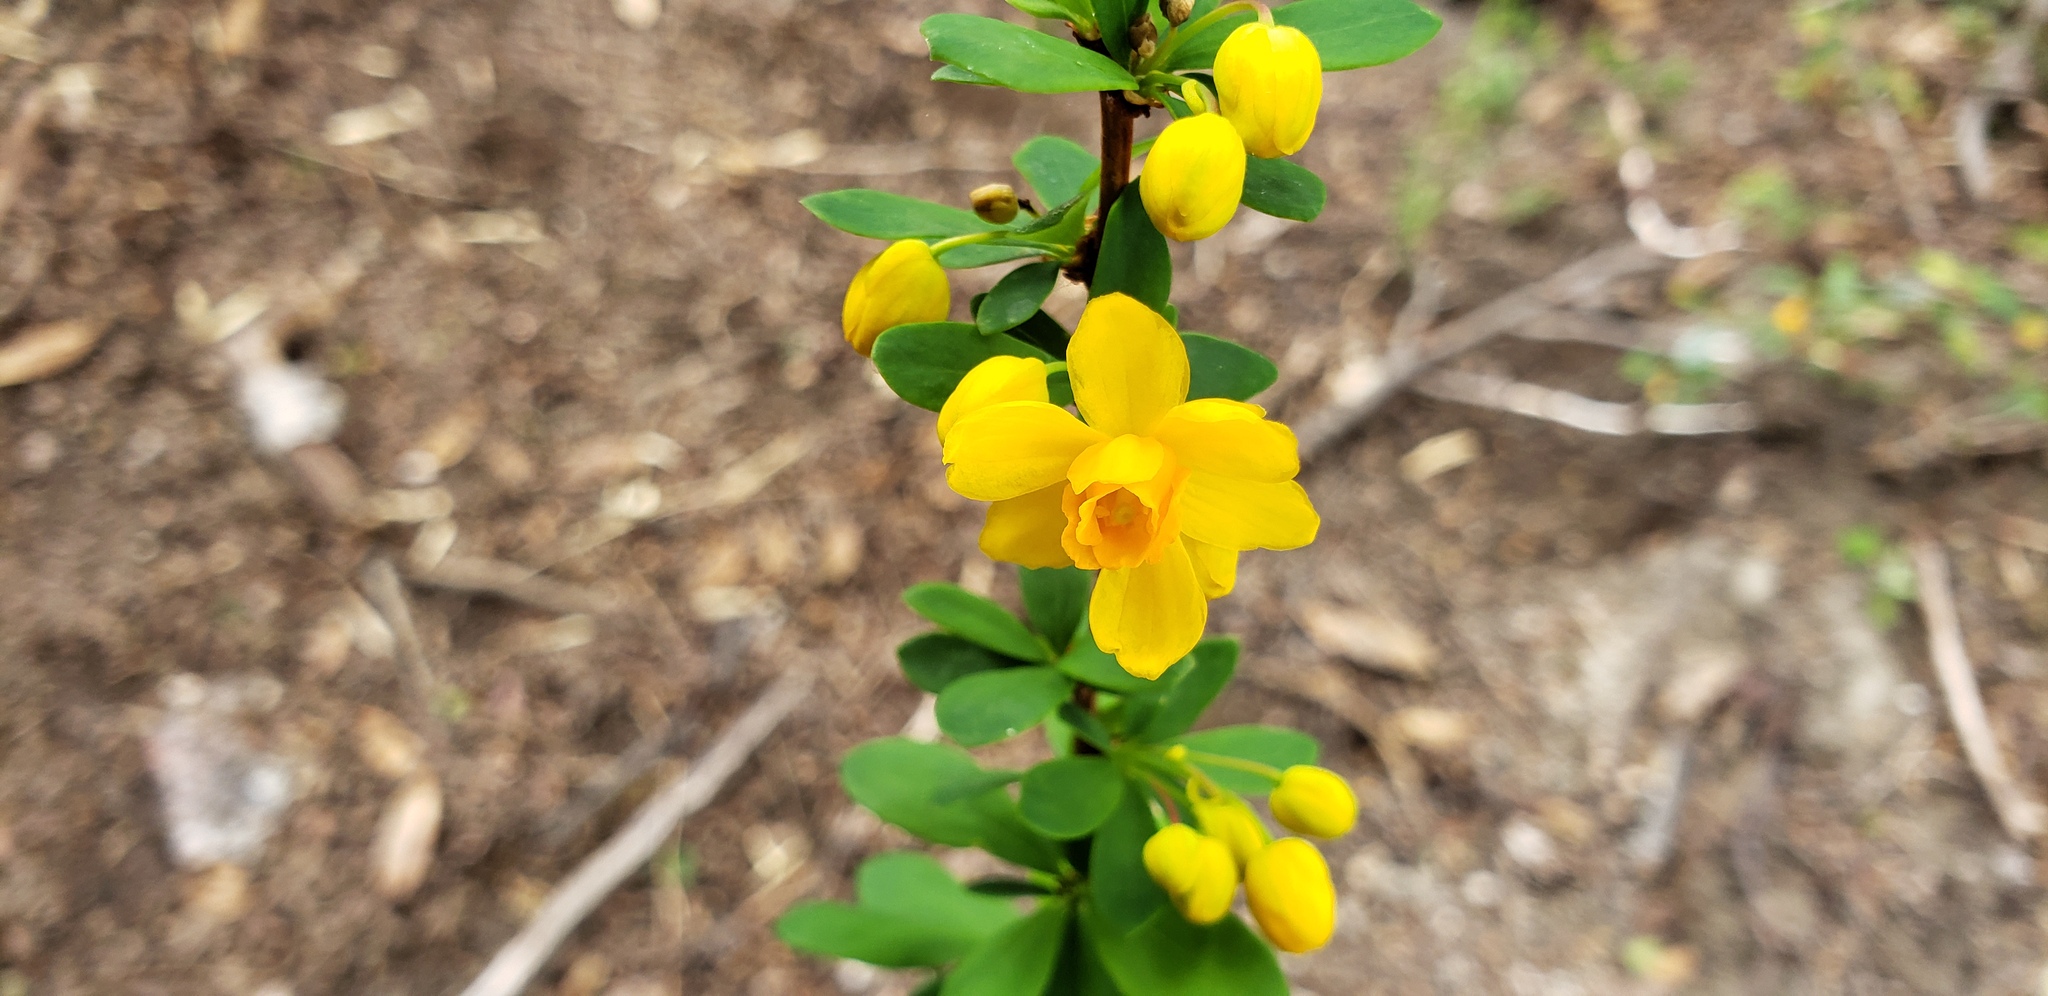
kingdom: Plantae
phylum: Tracheophyta
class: Magnoliopsida
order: Ranunculales
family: Berberidaceae
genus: Berberis
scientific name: Berberis microphylla
